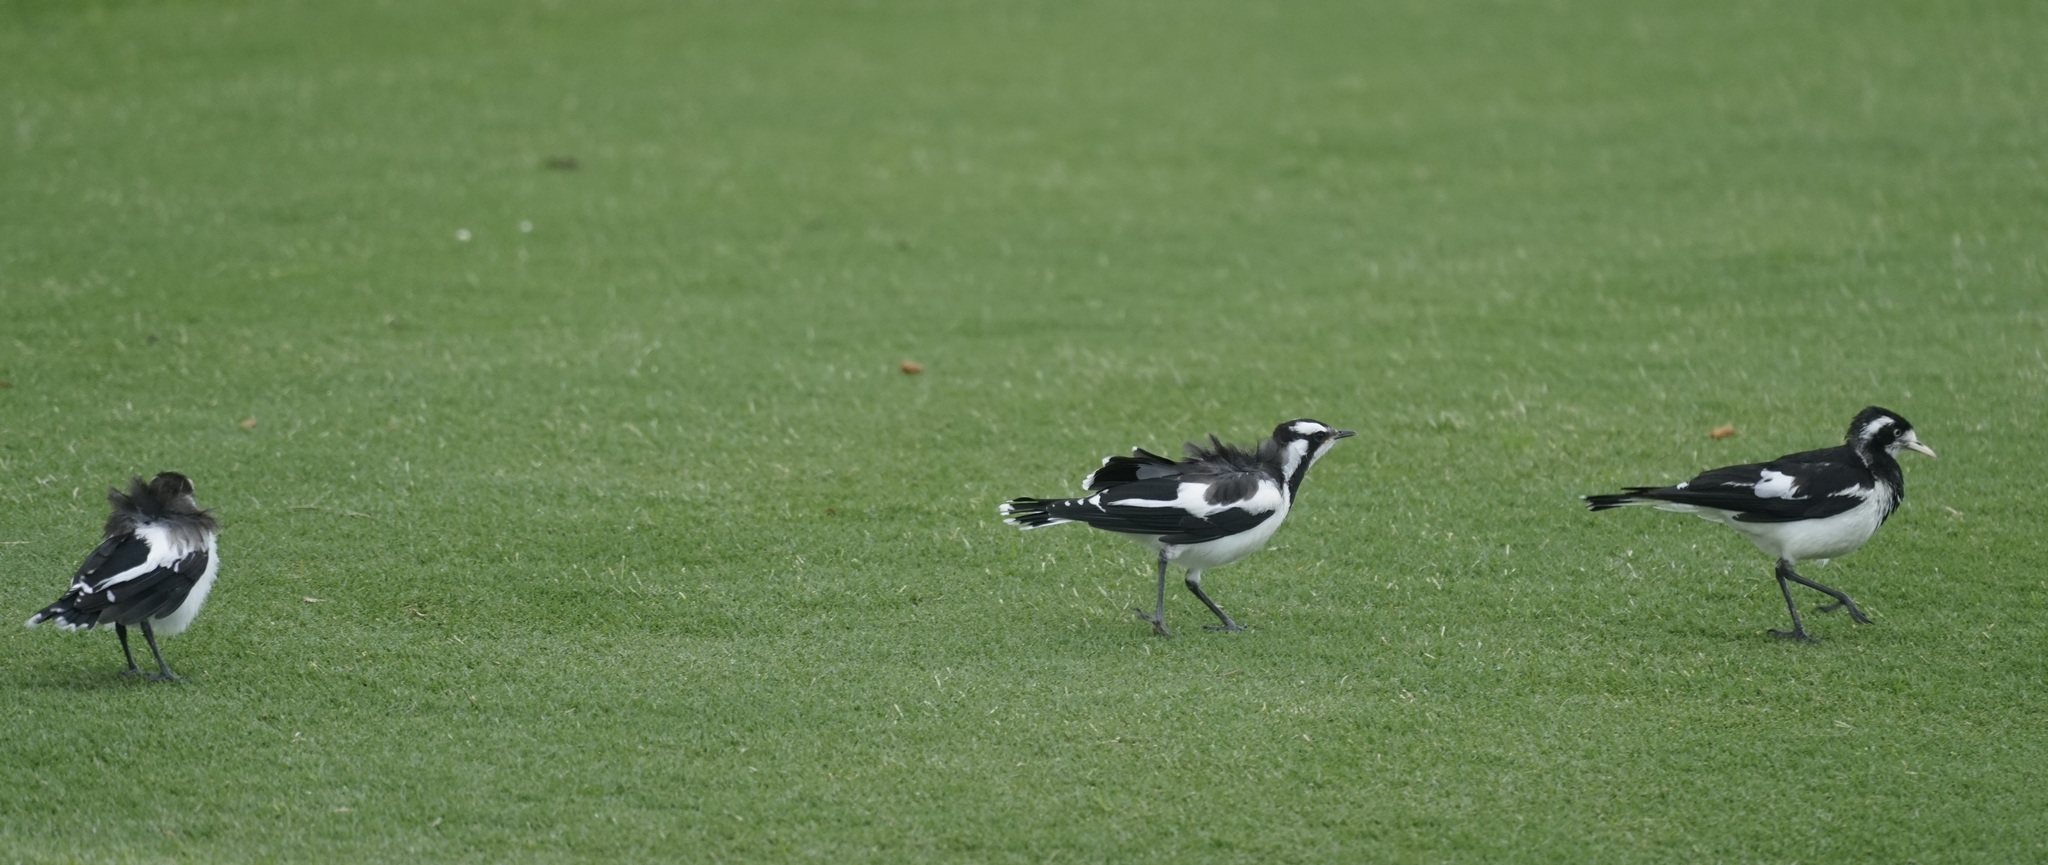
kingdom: Animalia
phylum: Chordata
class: Aves
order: Passeriformes
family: Monarchidae
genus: Grallina
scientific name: Grallina cyanoleuca
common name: Magpie-lark
